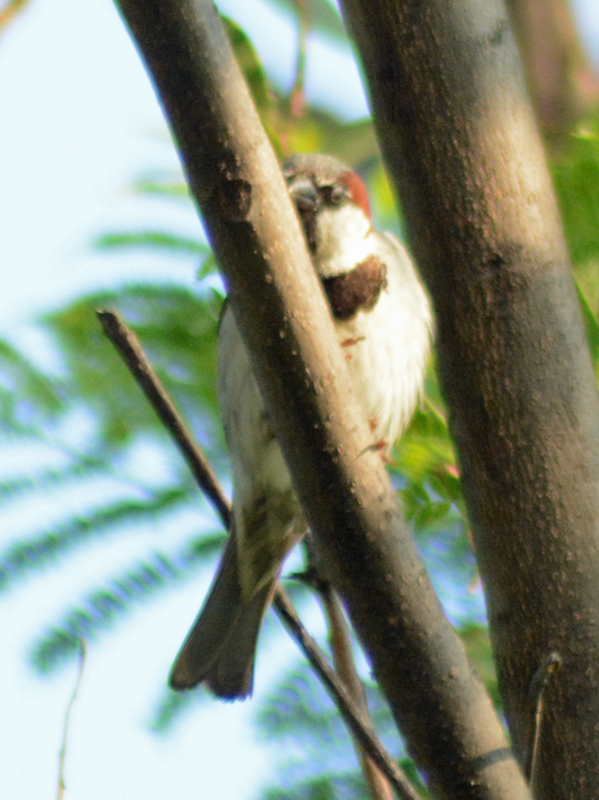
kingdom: Animalia
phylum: Chordata
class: Aves
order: Passeriformes
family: Passeridae
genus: Passer
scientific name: Passer domesticus
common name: House sparrow
